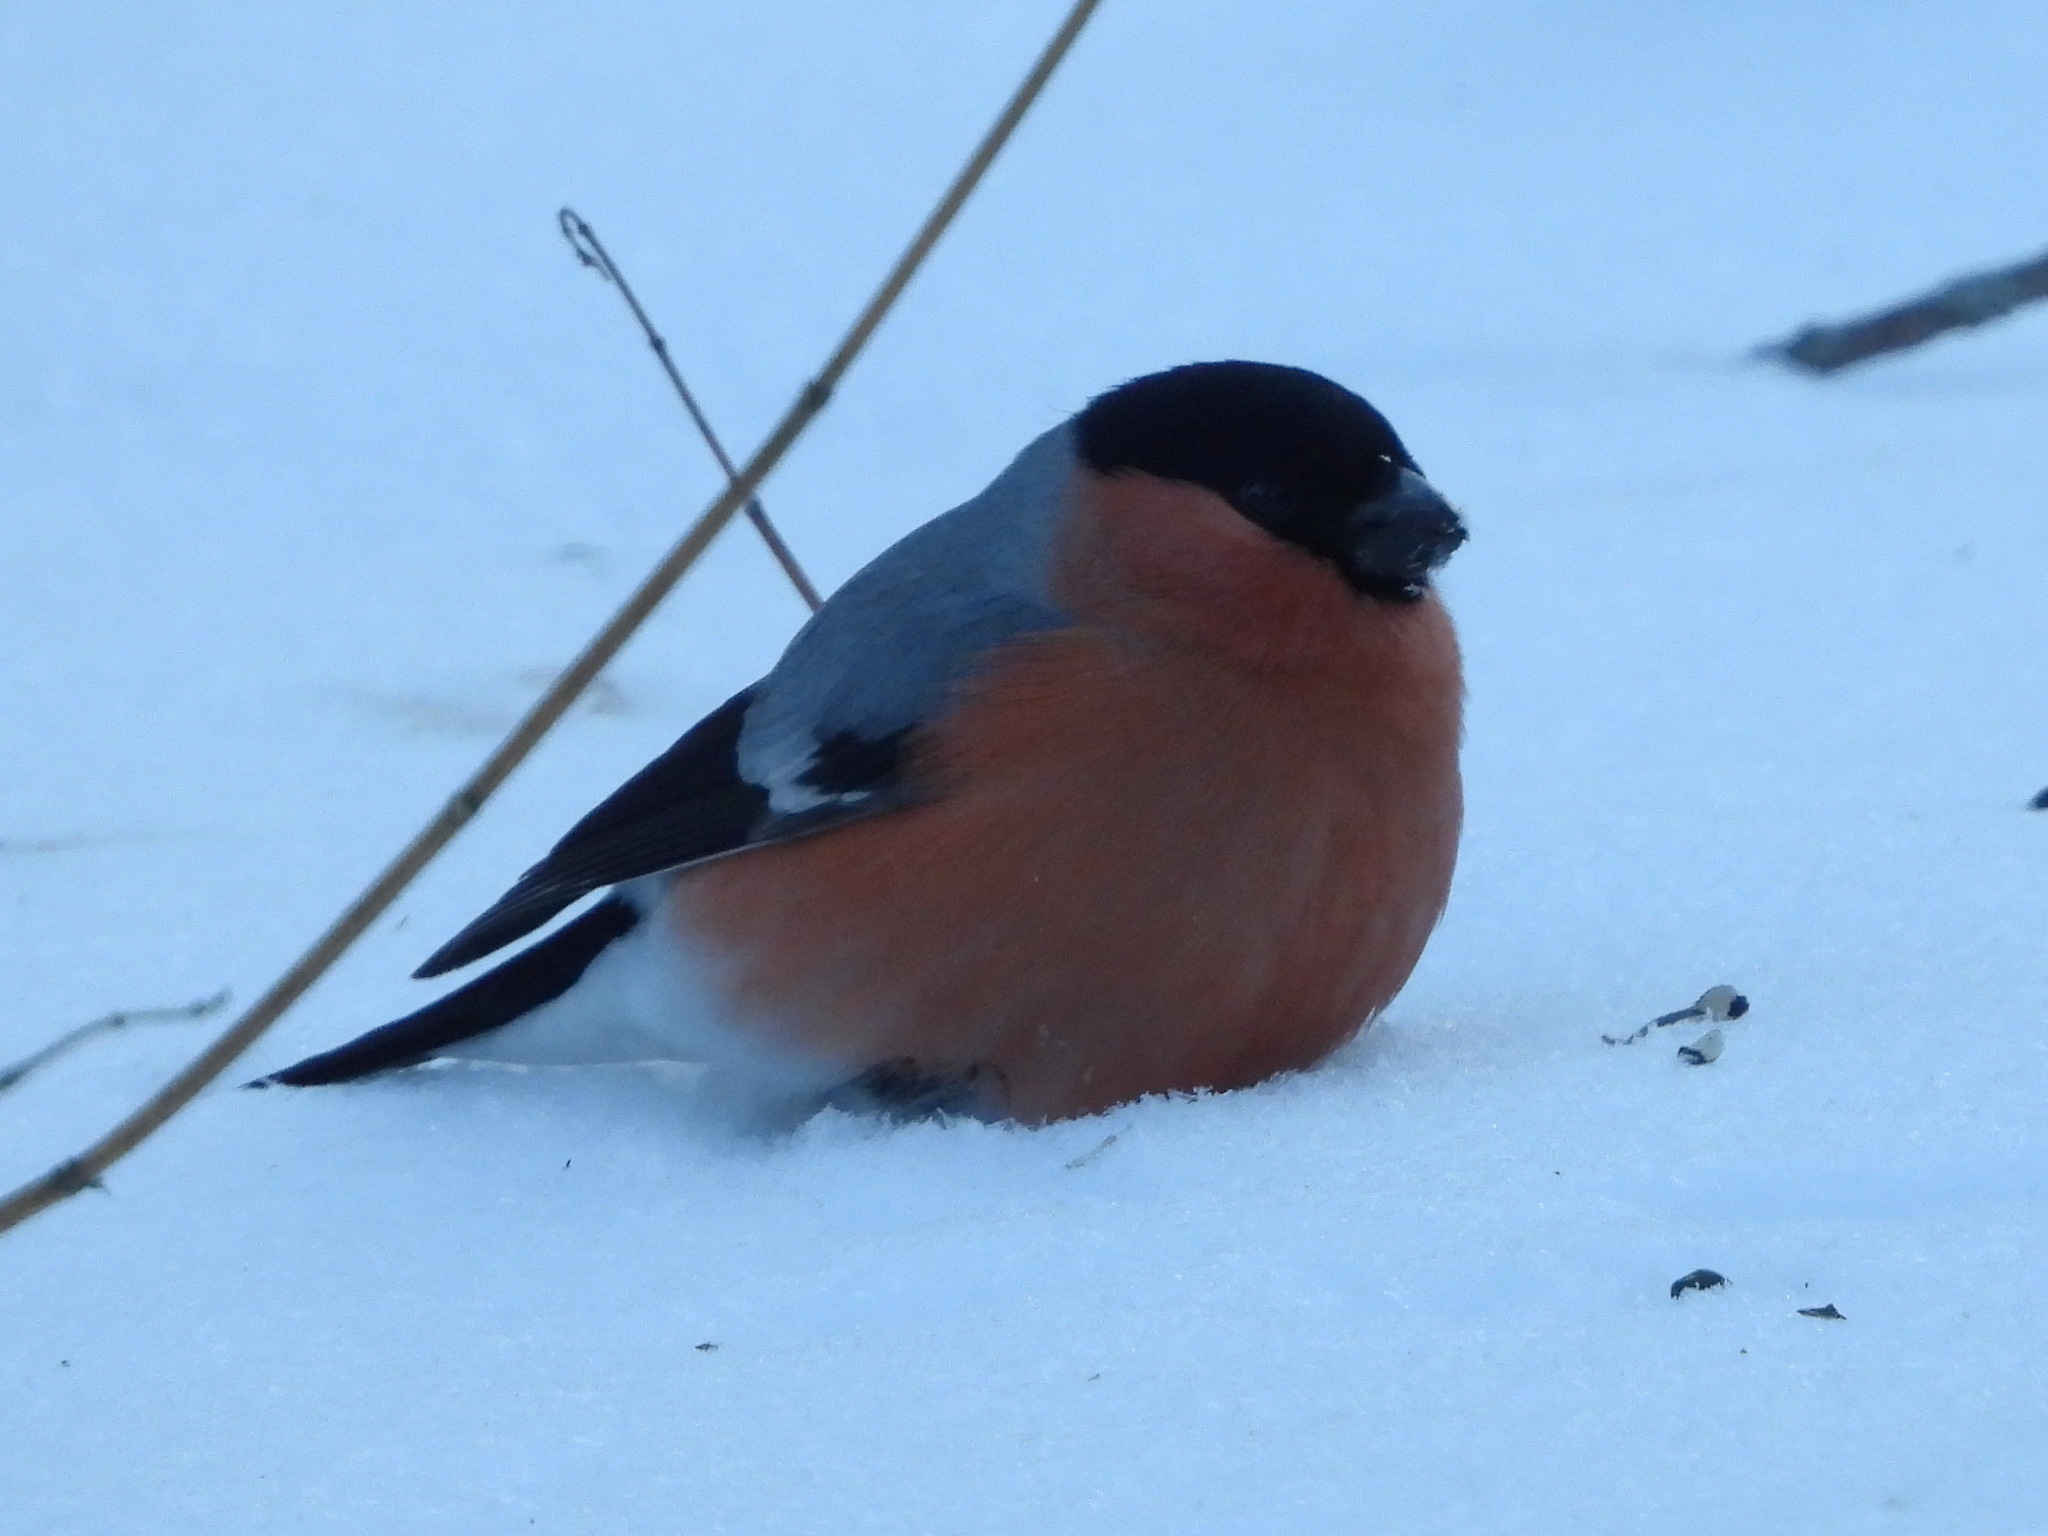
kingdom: Animalia
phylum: Chordata
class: Aves
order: Passeriformes
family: Fringillidae
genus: Pyrrhula
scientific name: Pyrrhula pyrrhula
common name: Eurasian bullfinch
